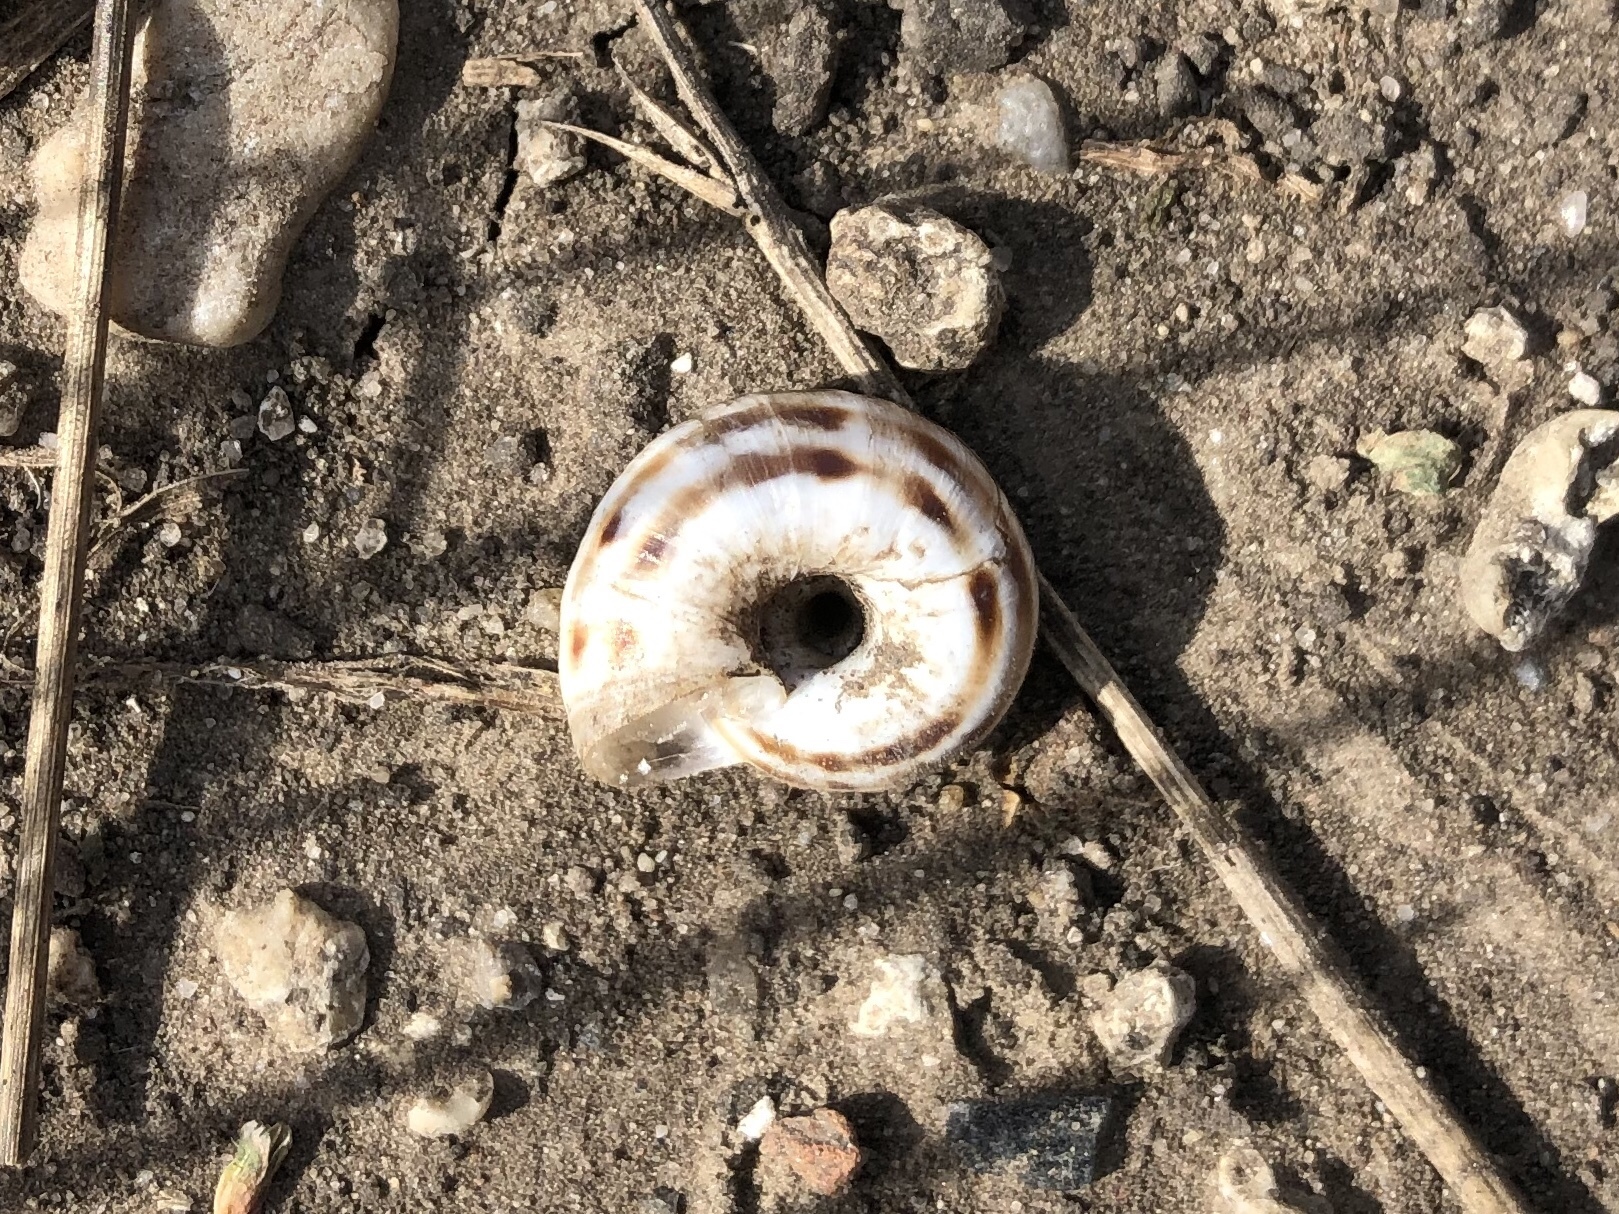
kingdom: Animalia
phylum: Mollusca
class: Gastropoda
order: Stylommatophora
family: Geomitridae
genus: Xerolenta
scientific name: Xerolenta obvia
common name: White heath snail
